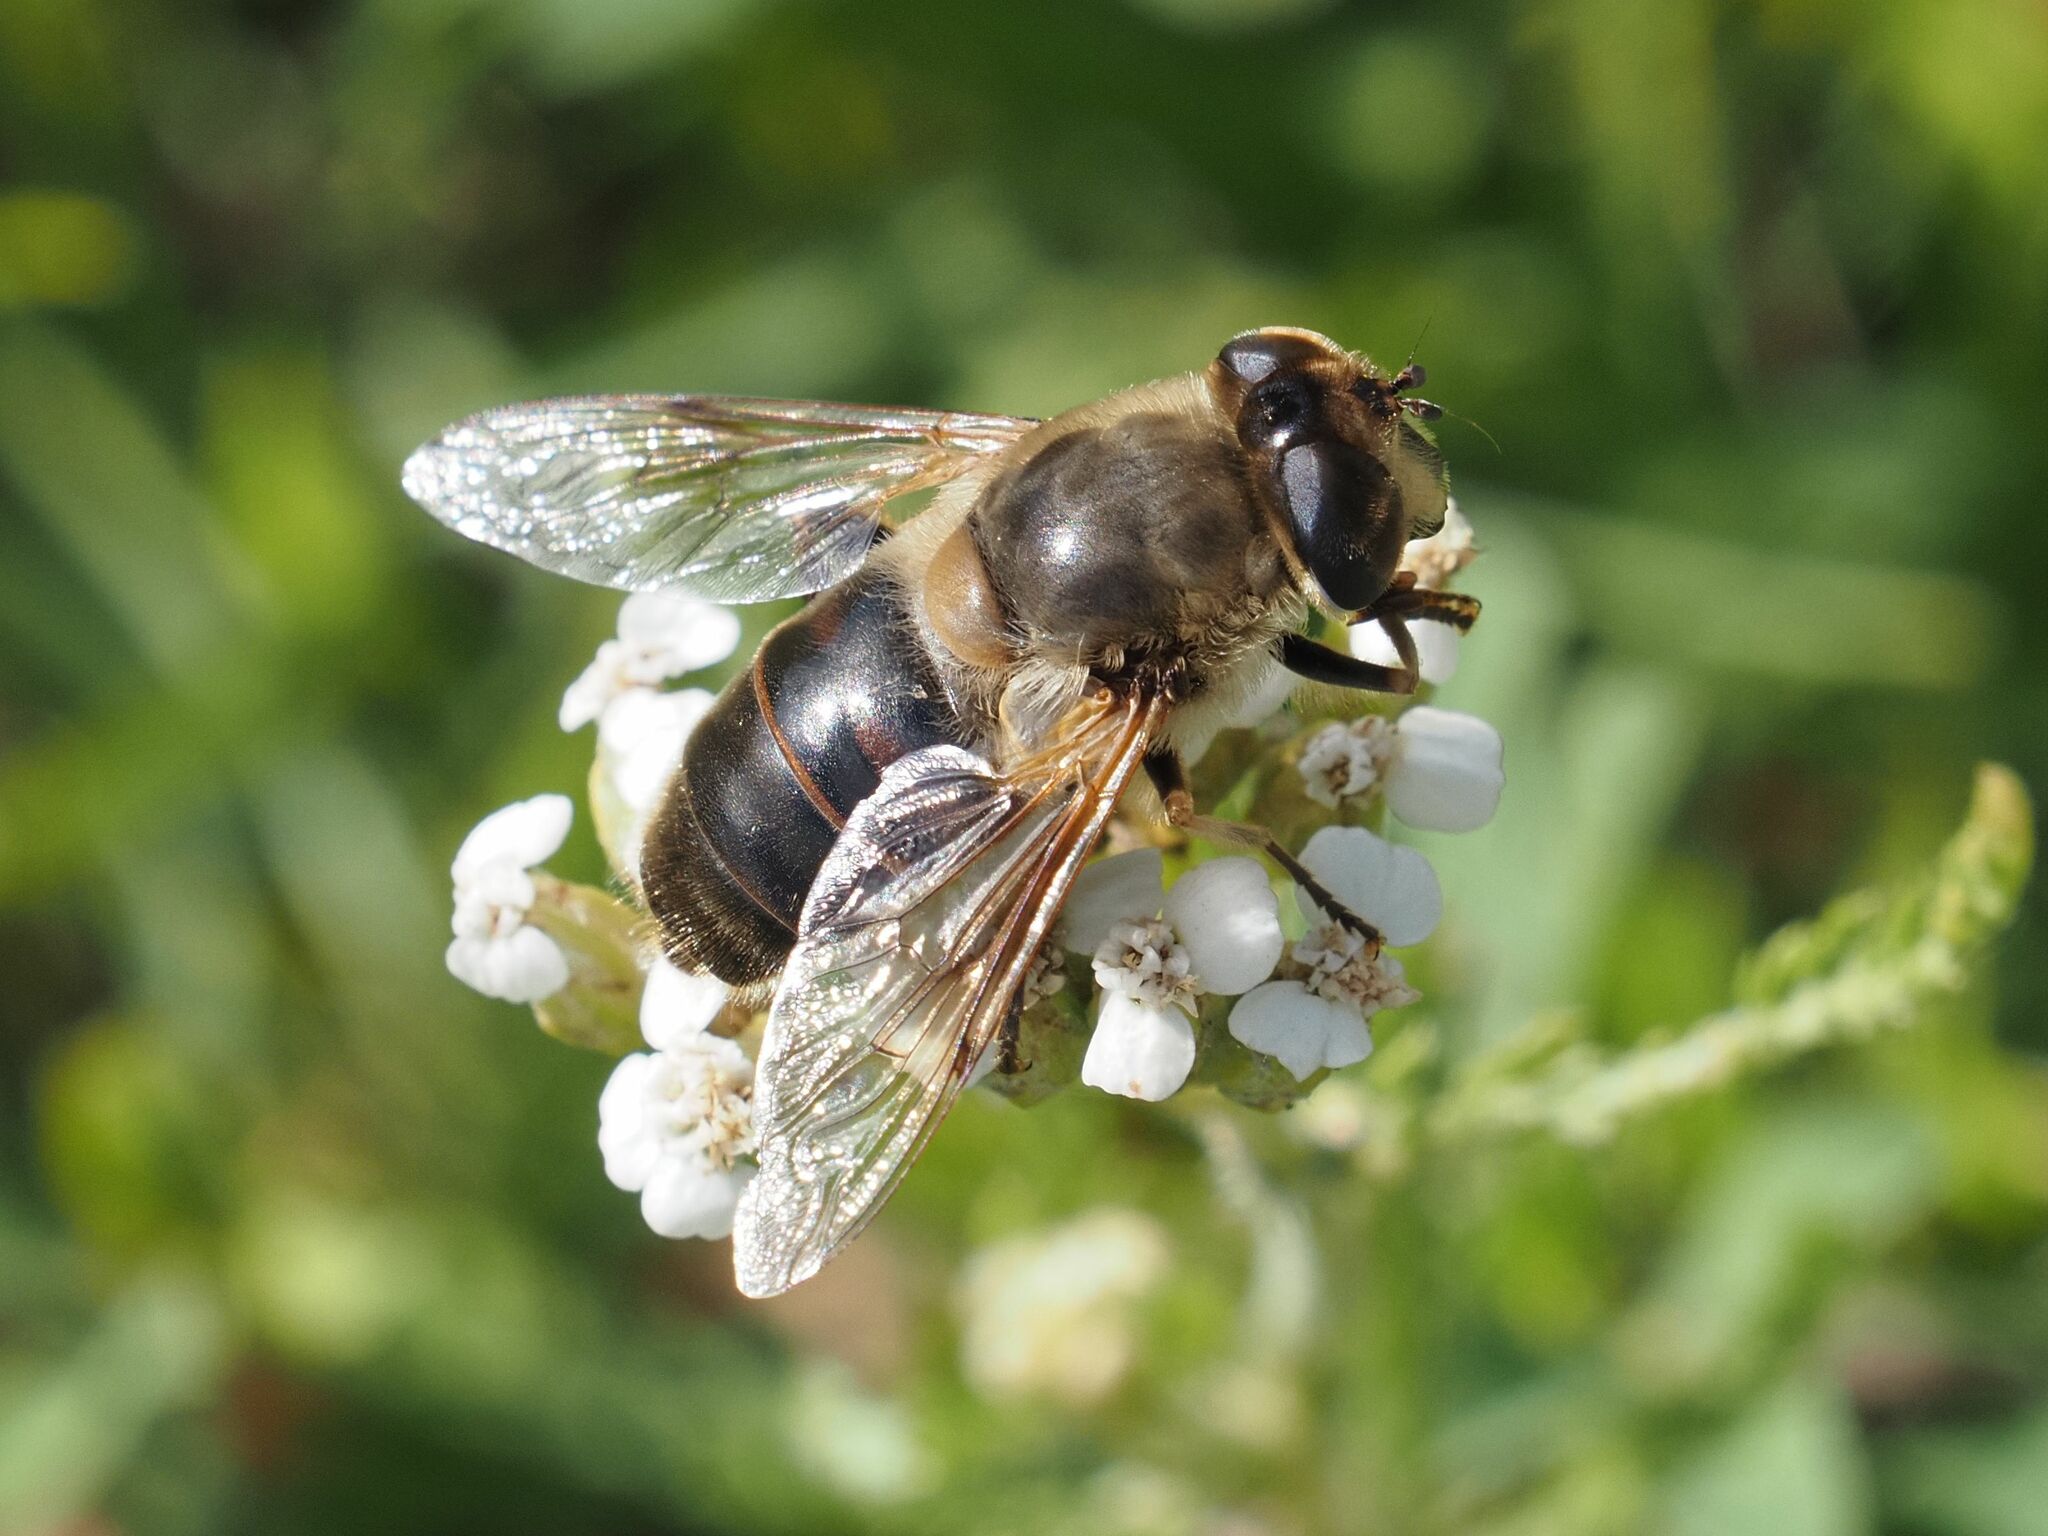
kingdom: Animalia
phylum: Arthropoda
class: Insecta
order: Diptera
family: Syrphidae
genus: Eristalis
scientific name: Eristalis tenax
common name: Drone fly
